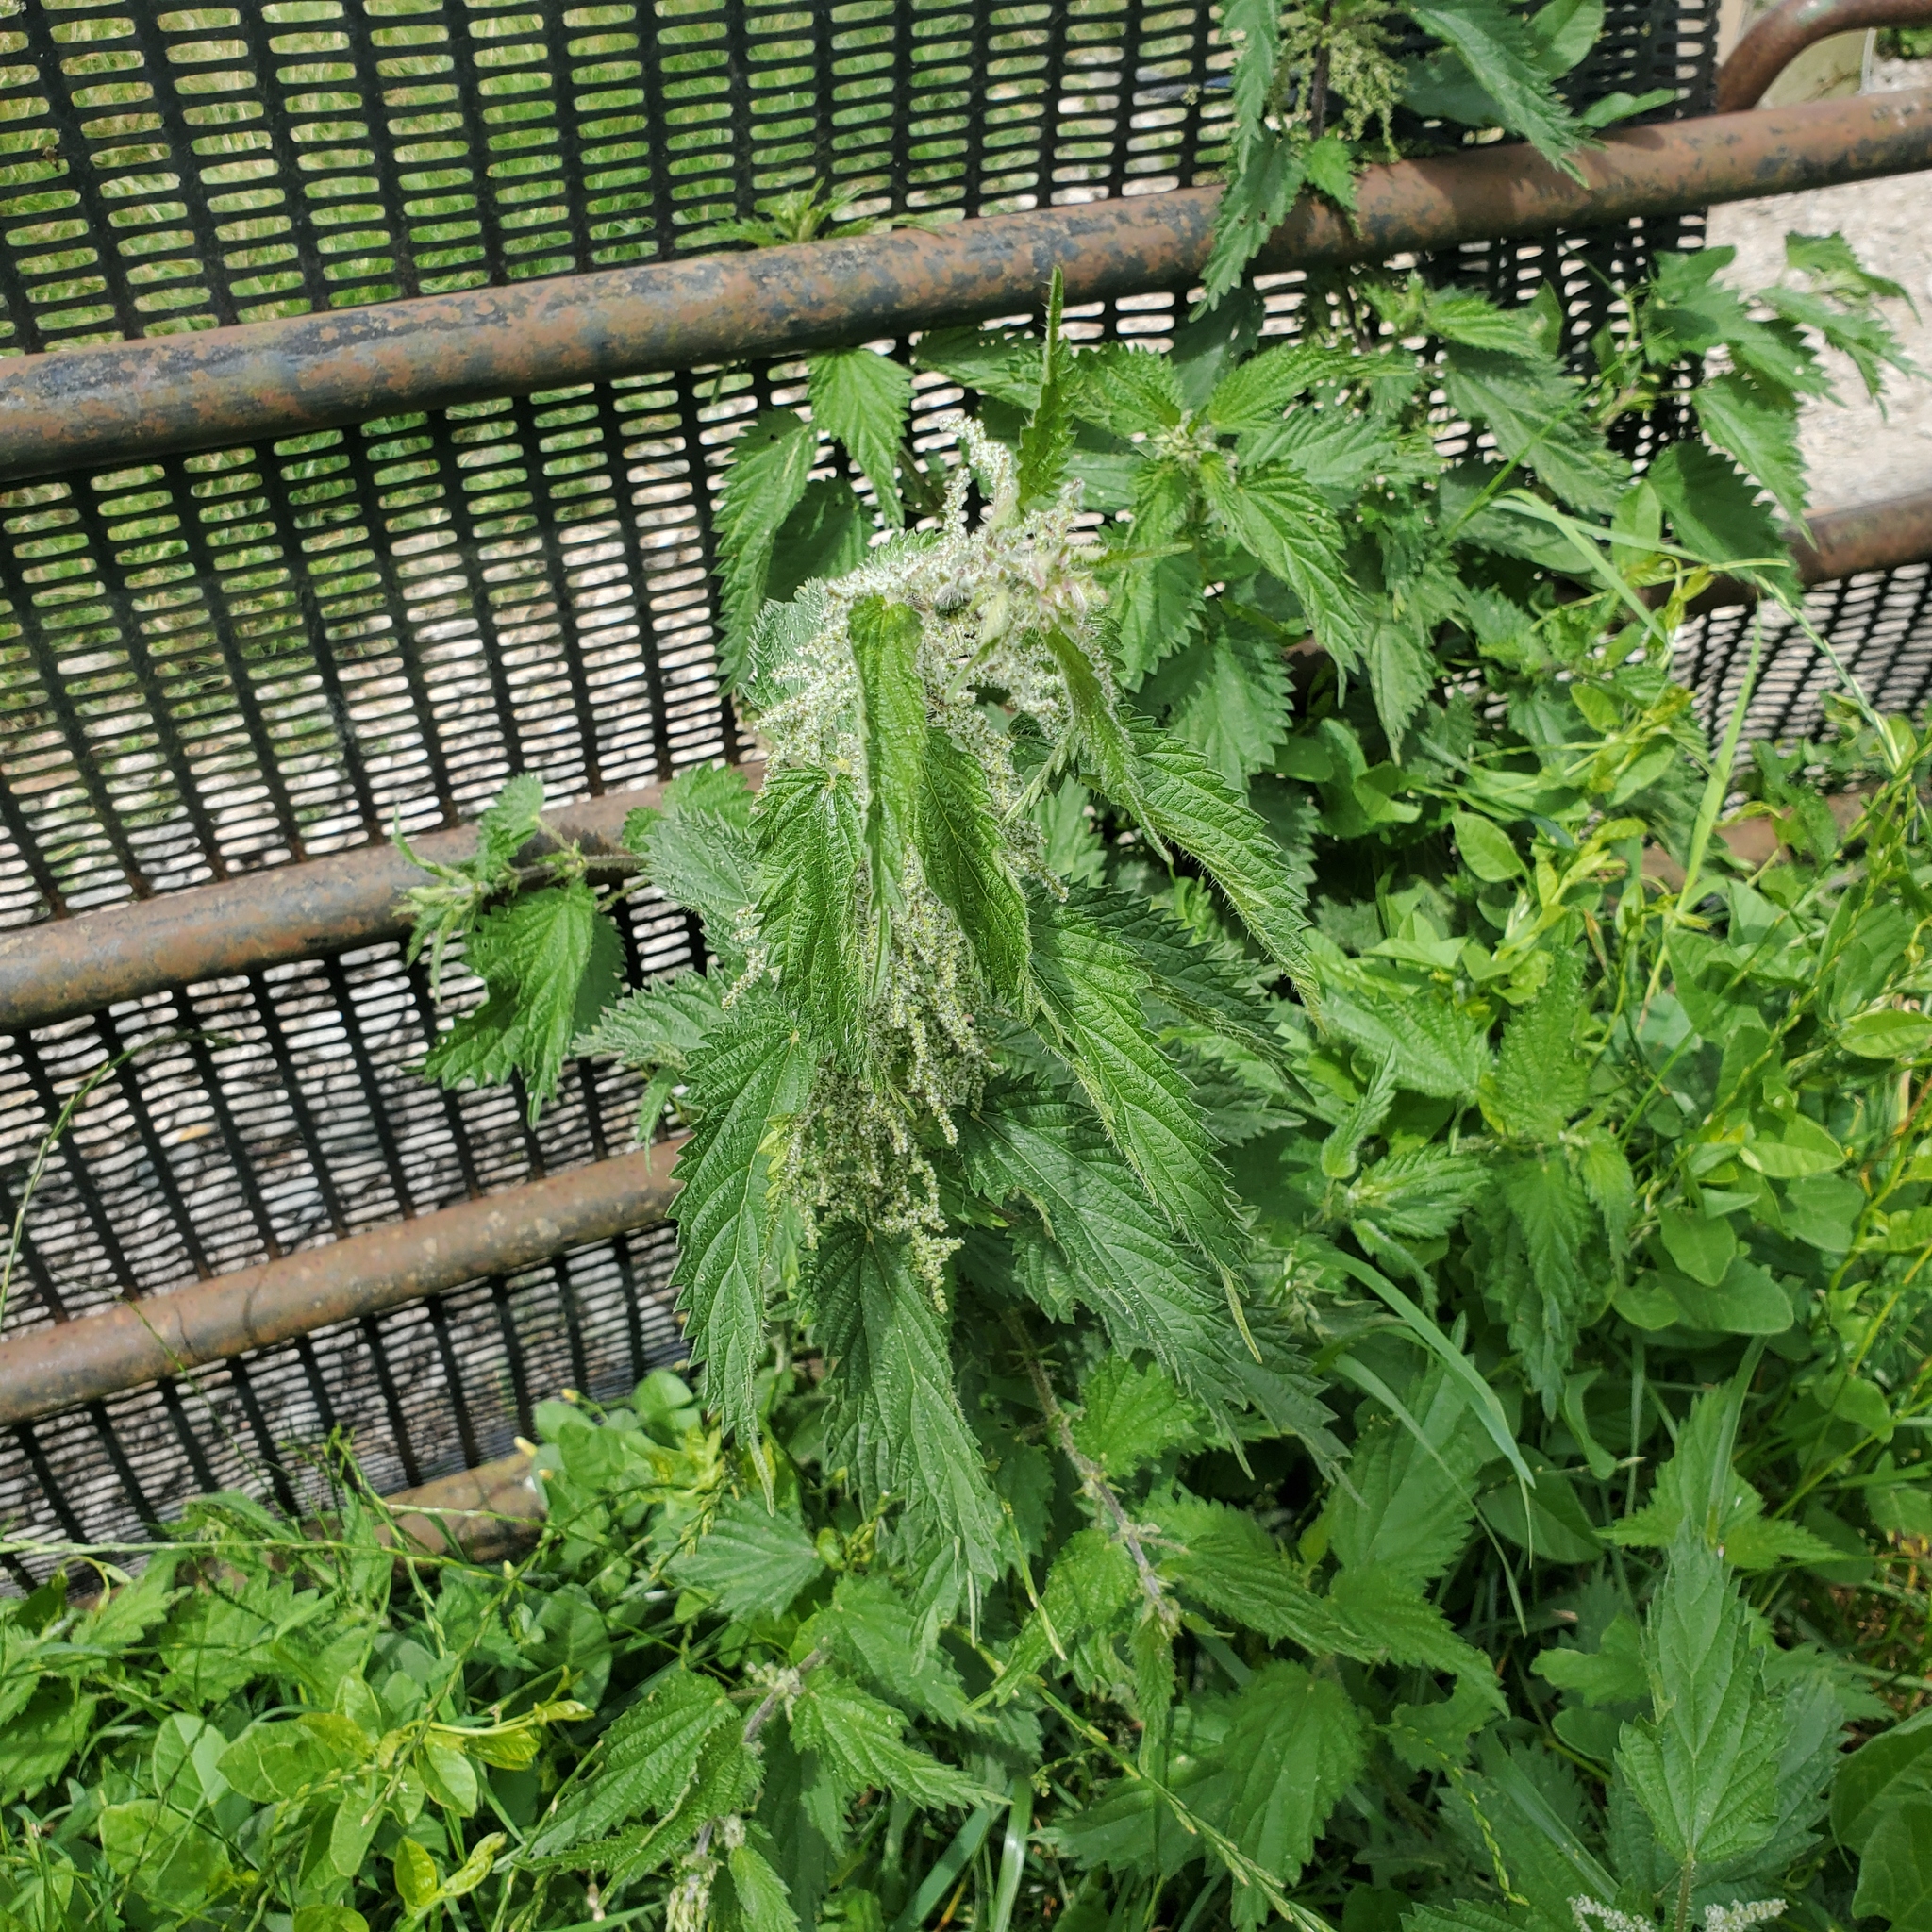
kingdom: Plantae
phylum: Tracheophyta
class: Magnoliopsida
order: Rosales
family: Urticaceae
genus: Urtica
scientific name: Urtica dioica
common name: Common nettle
